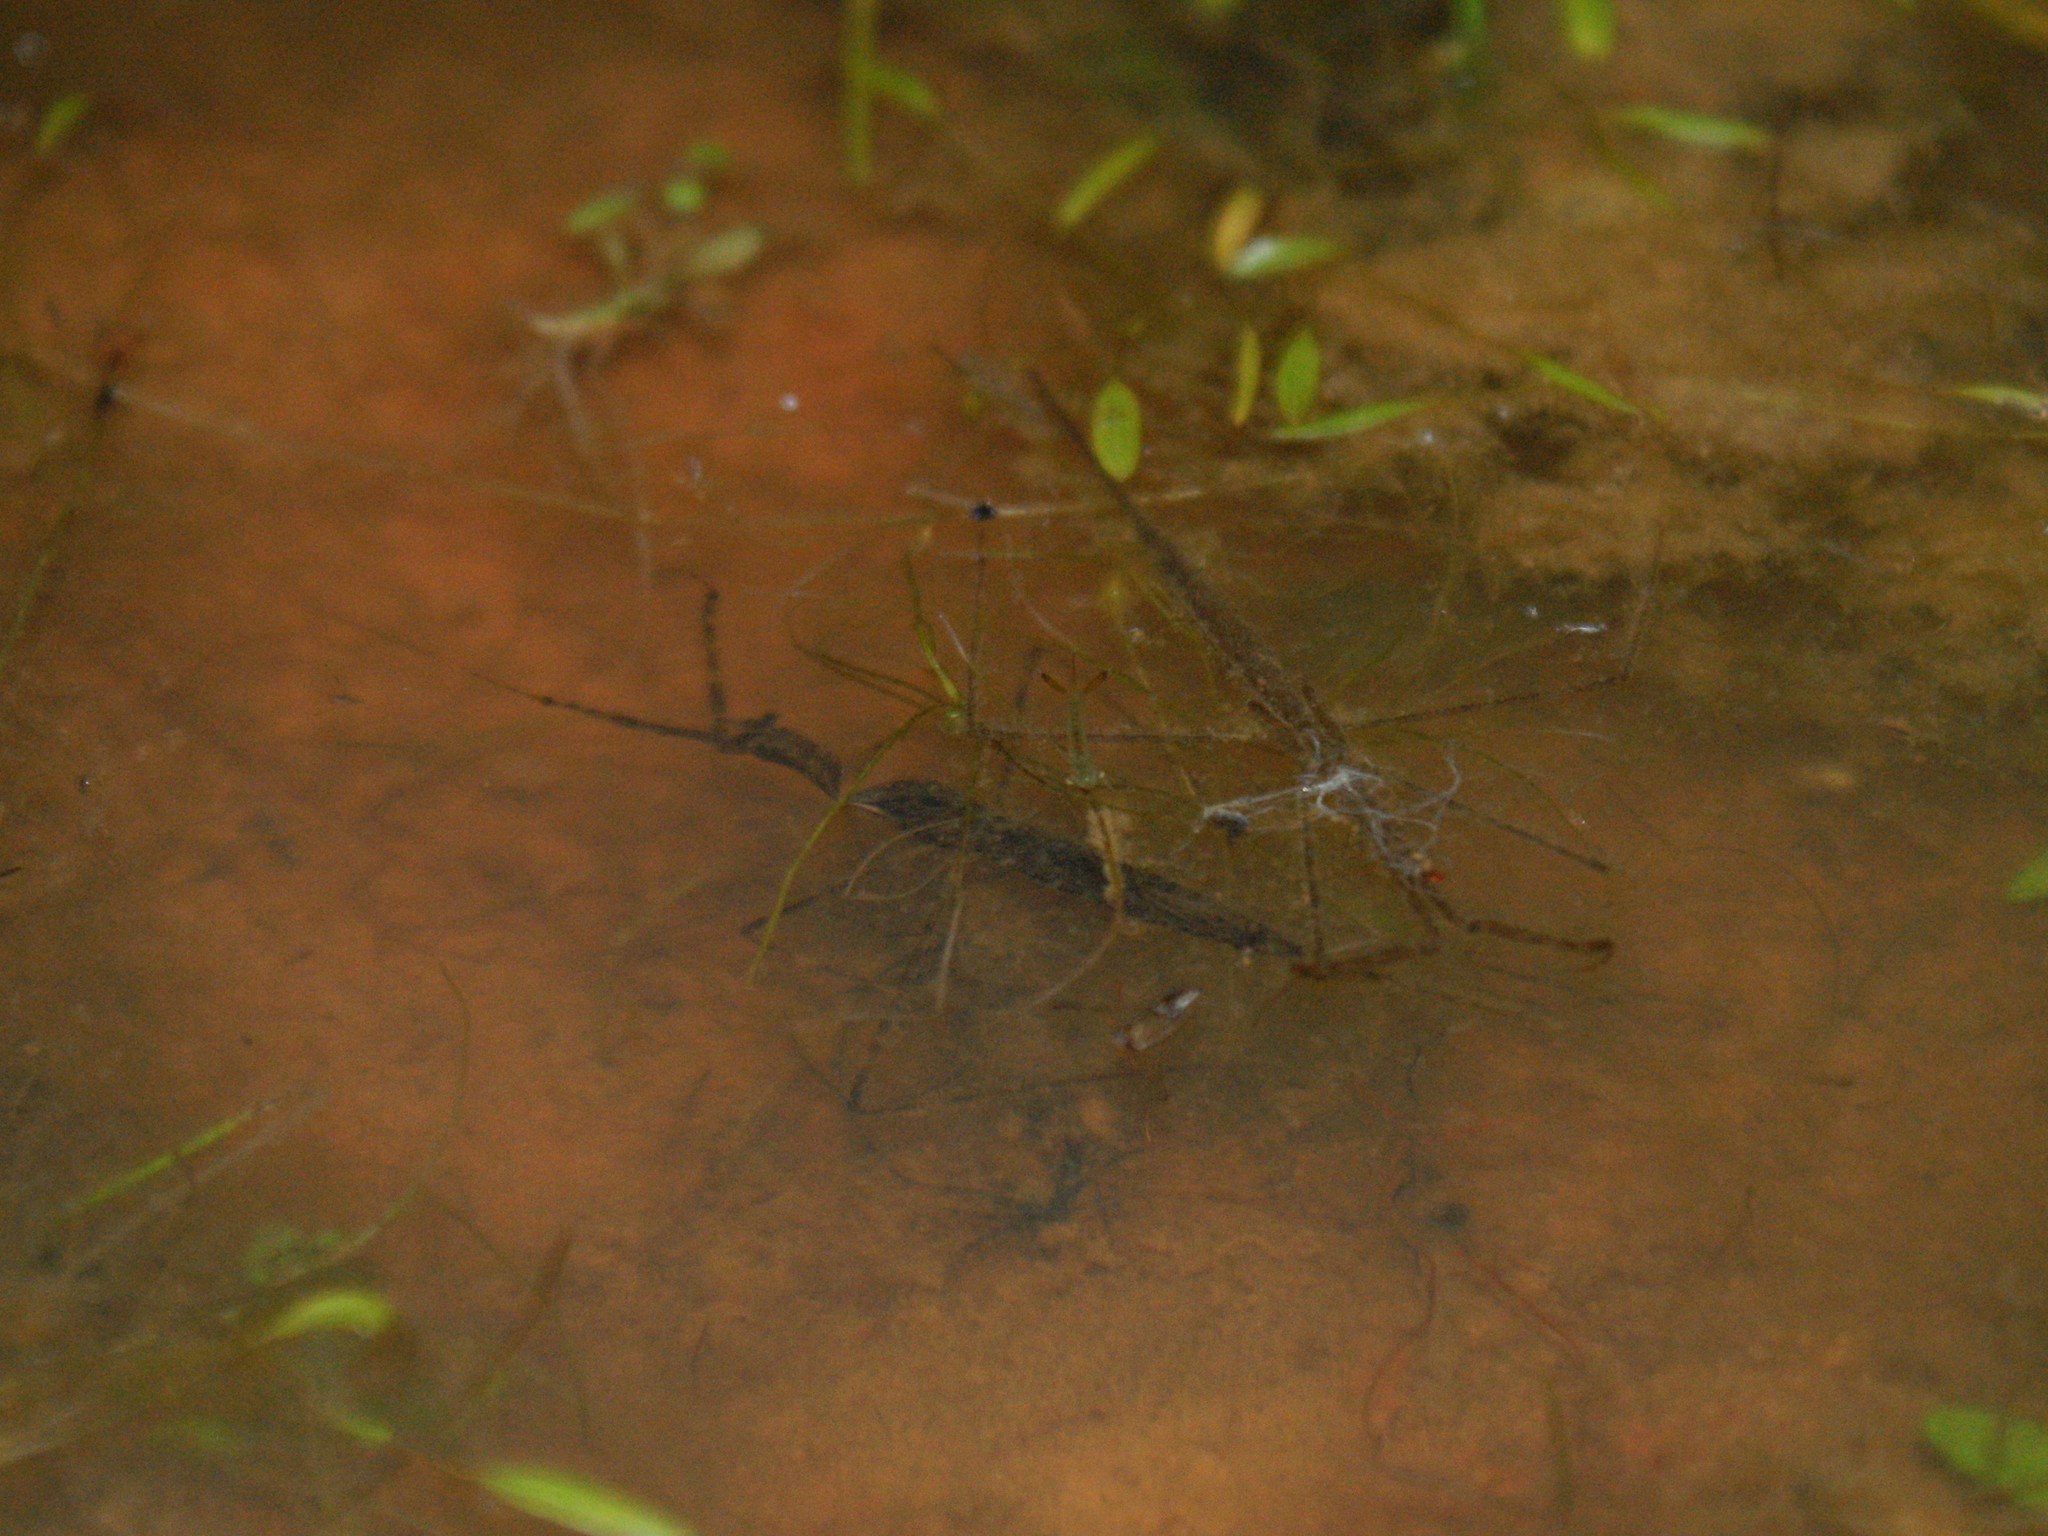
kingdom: Animalia
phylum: Arthropoda
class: Insecta
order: Hemiptera
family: Nepidae
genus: Ranatra
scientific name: Ranatra
